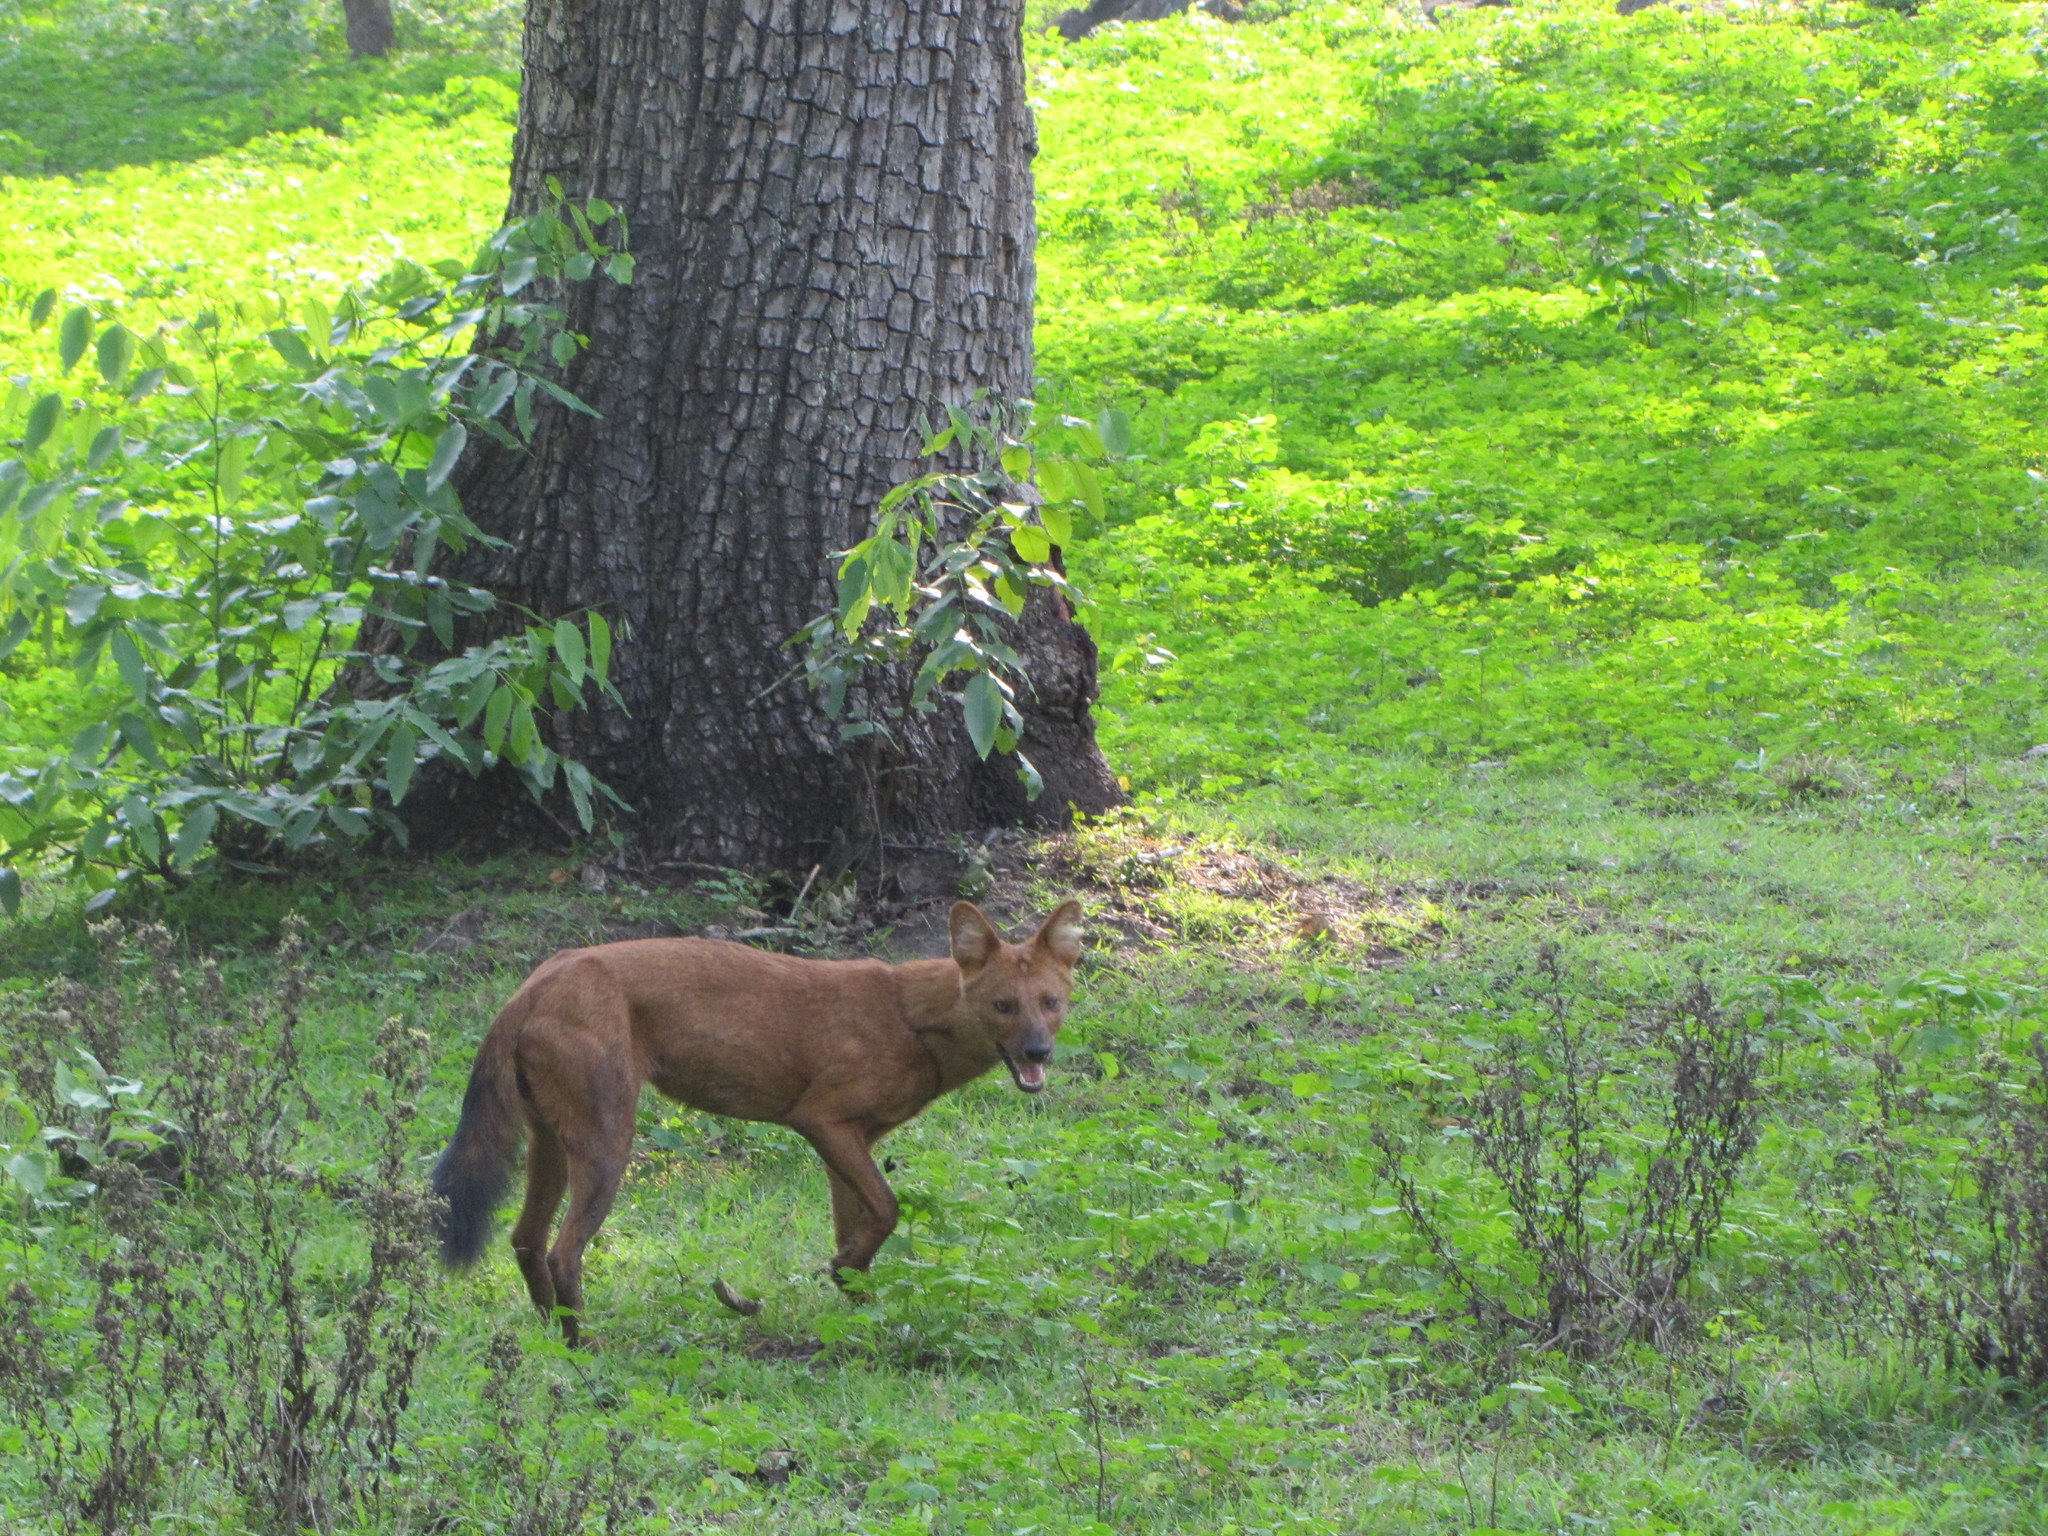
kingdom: Animalia
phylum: Chordata
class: Mammalia
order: Carnivora
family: Canidae
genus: Cuon
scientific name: Cuon alpinus
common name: Dhole
